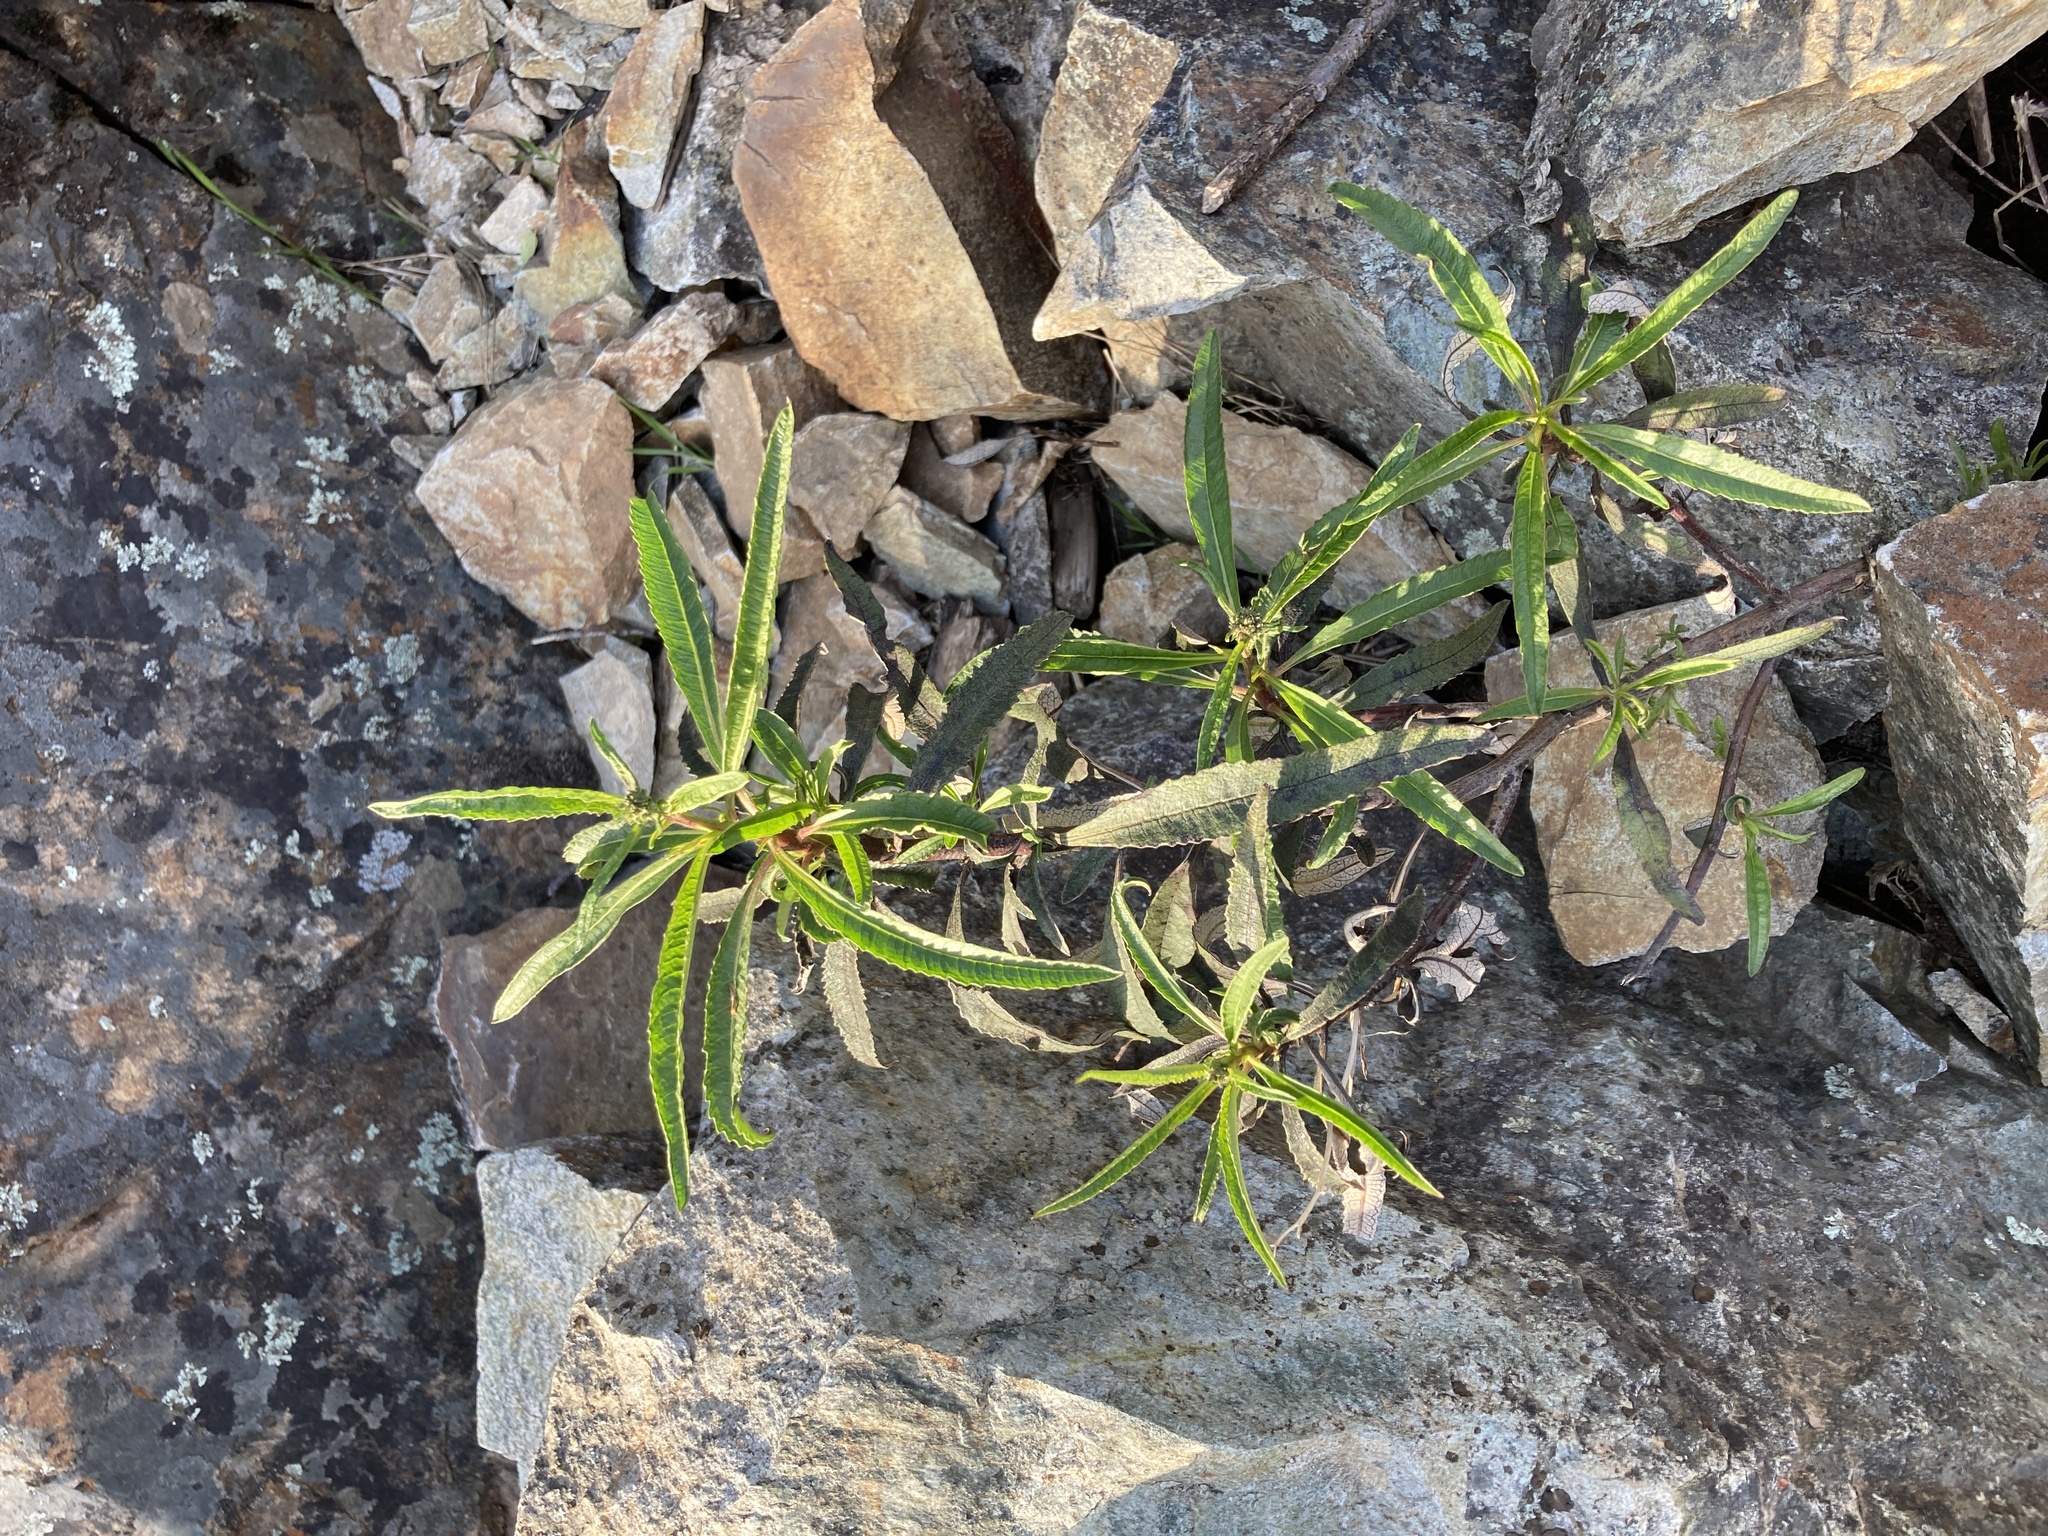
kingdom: Plantae
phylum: Tracheophyta
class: Magnoliopsida
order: Boraginales
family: Namaceae
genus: Eriodictyon
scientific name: Eriodictyon californicum
